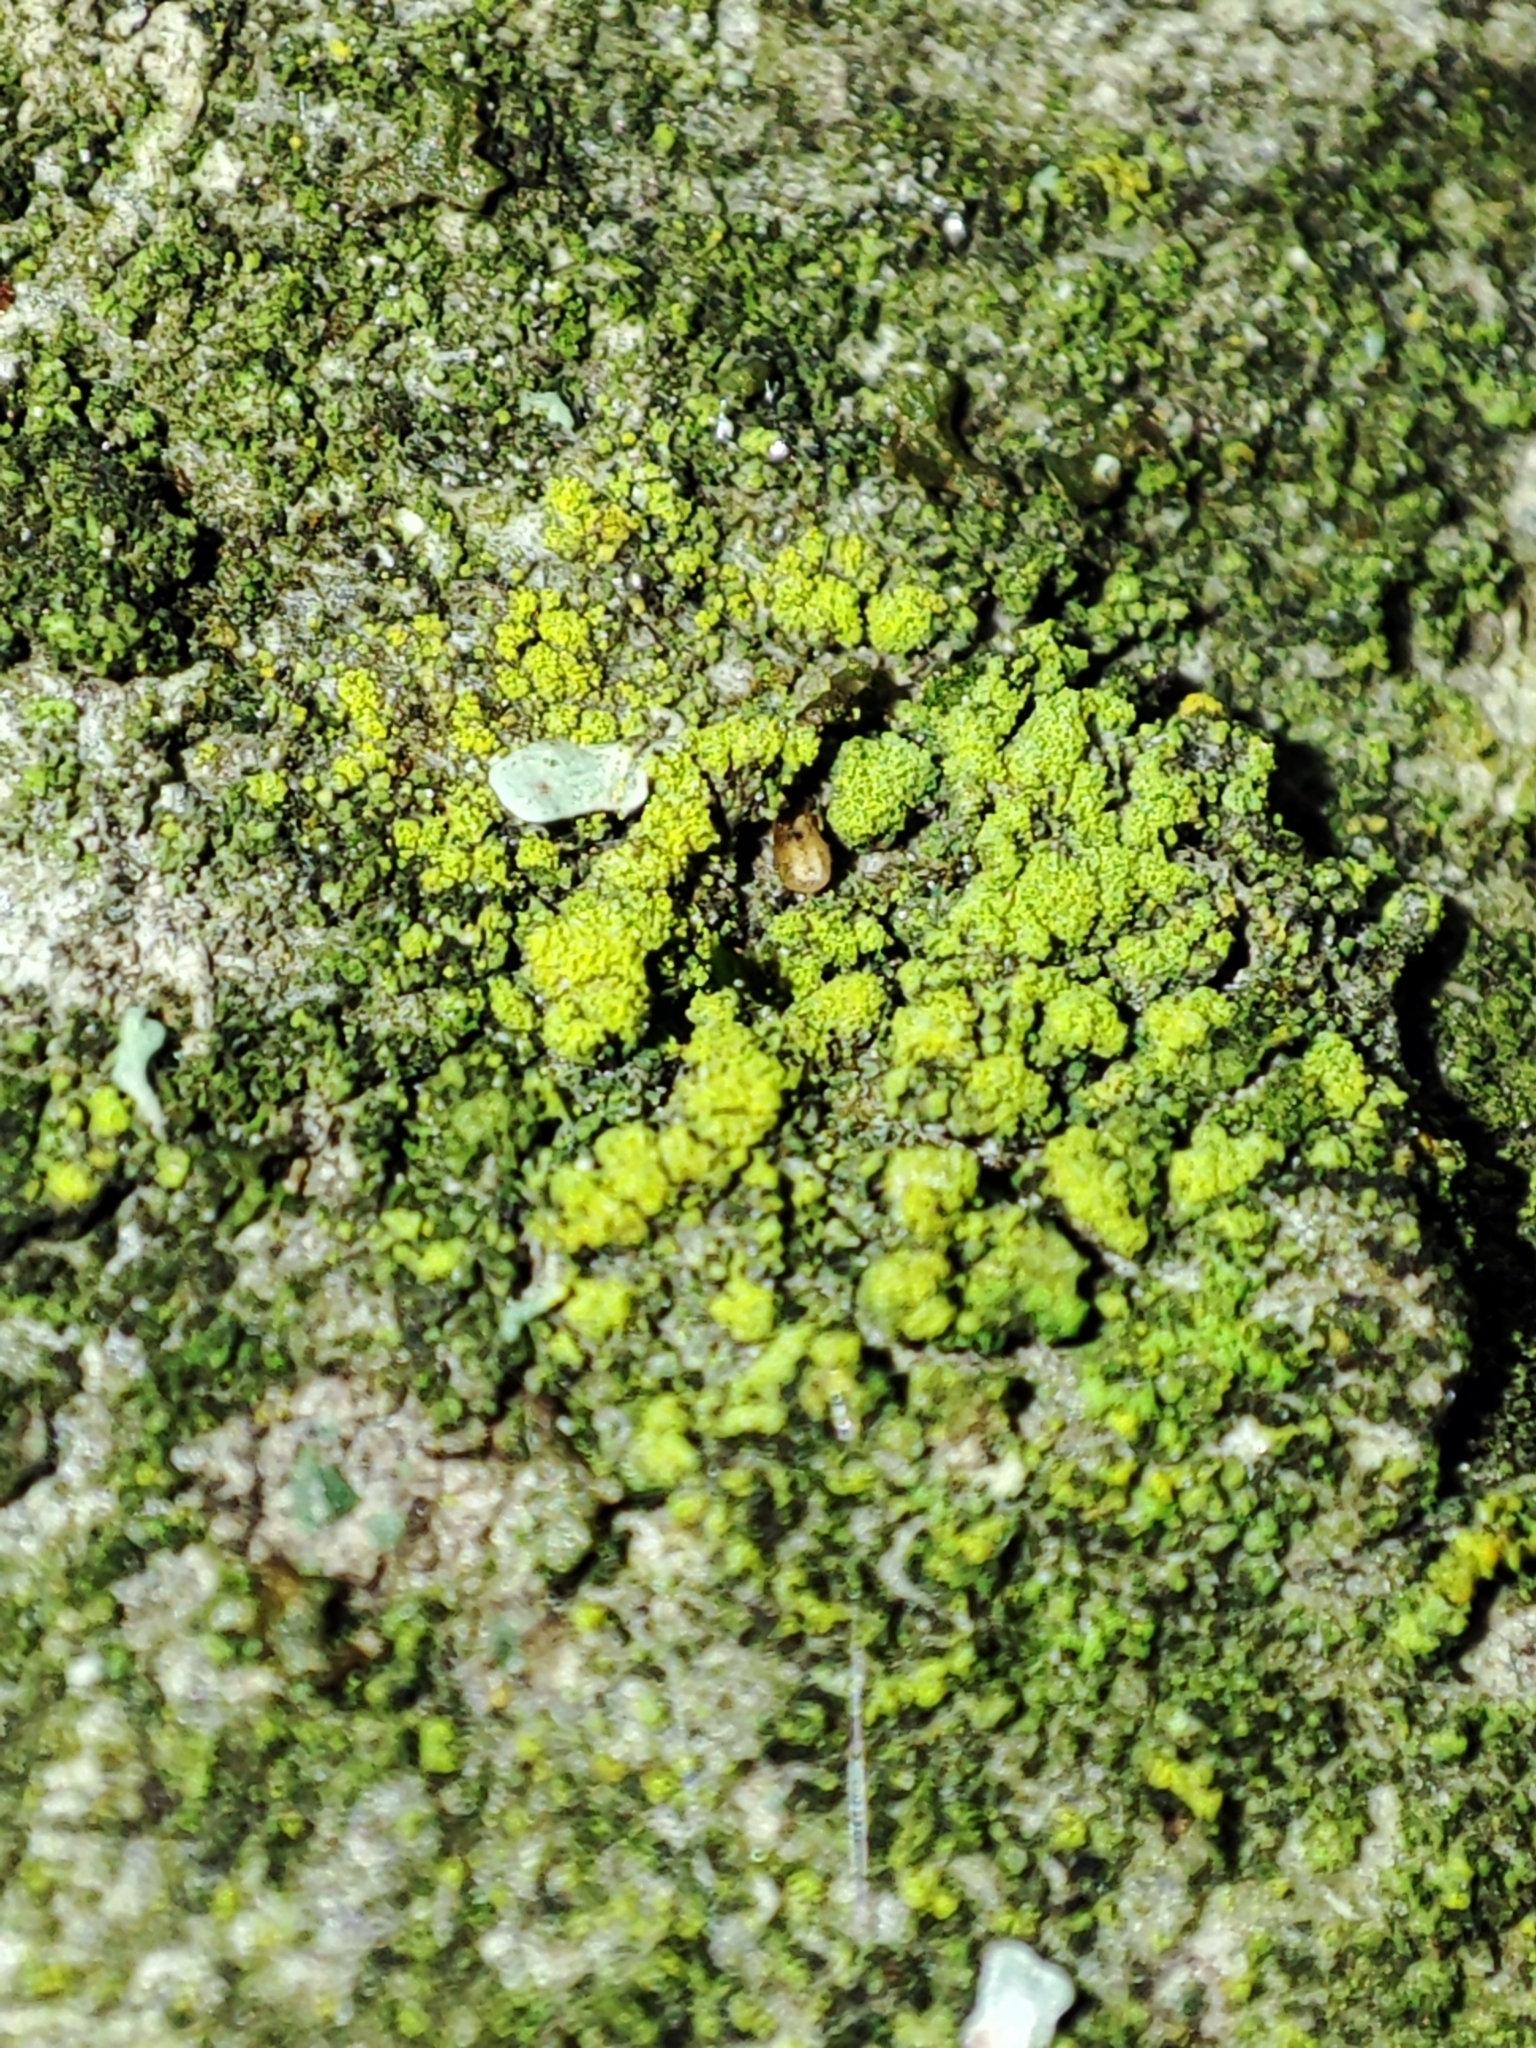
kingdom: Fungi
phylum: Ascomycota
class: Candelariomycetes
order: Candelariales
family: Candelariaceae
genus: Candelariella
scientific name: Candelariella efflorescens
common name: Powdery goldspeck
